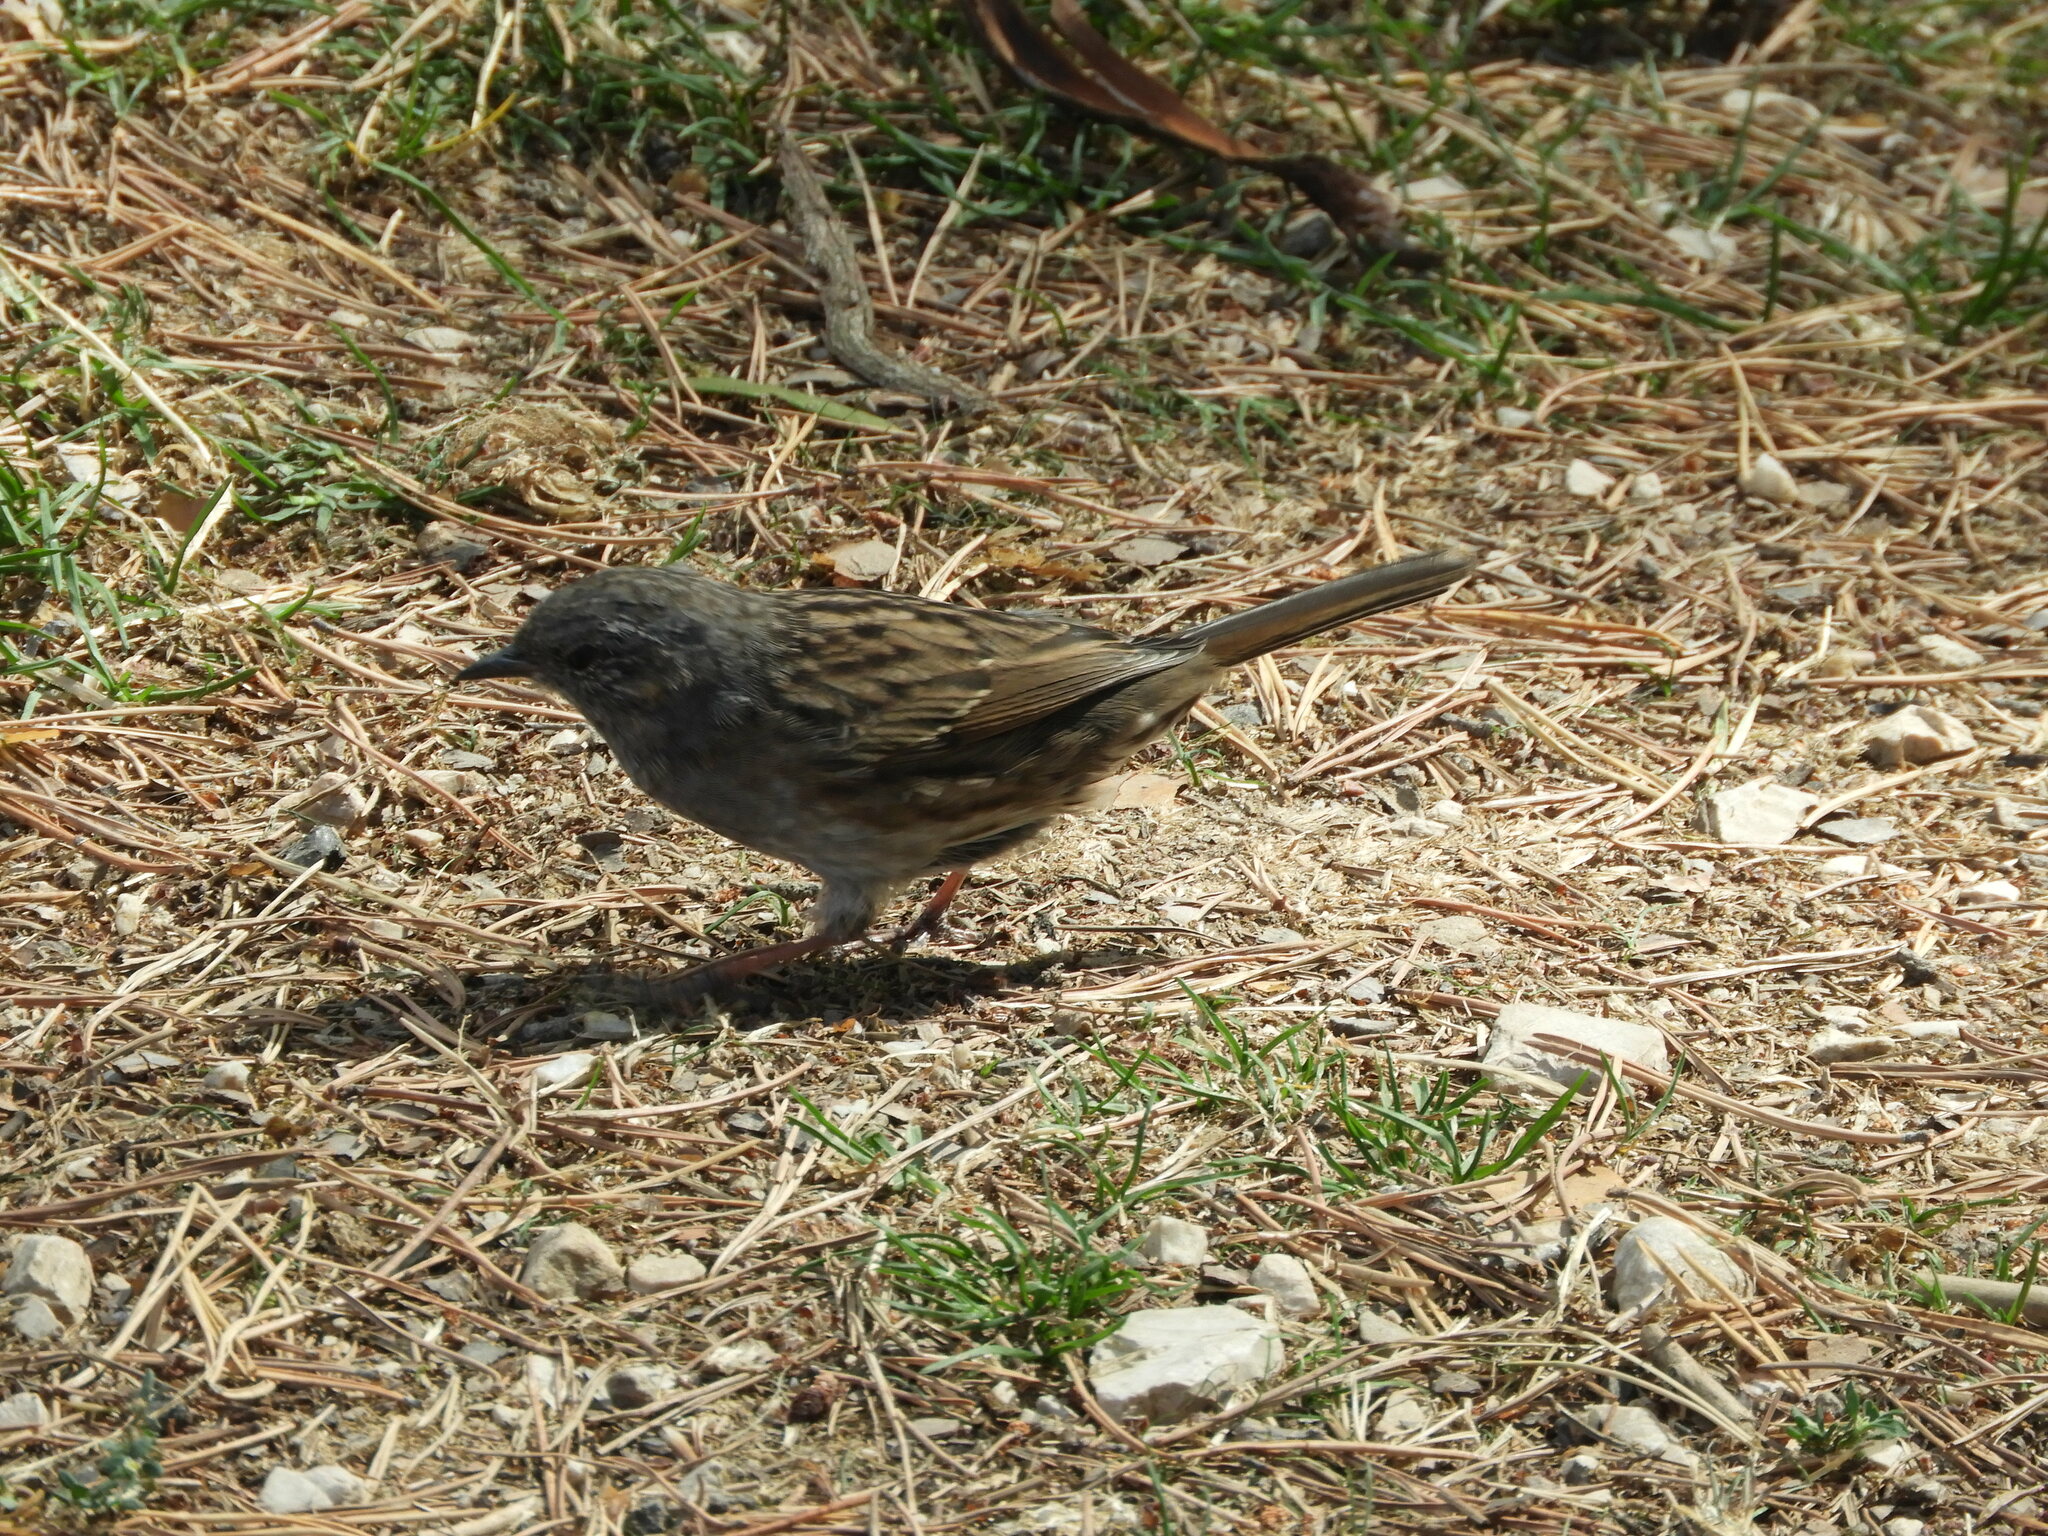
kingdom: Animalia
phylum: Chordata
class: Aves
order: Passeriformes
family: Prunellidae
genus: Prunella
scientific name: Prunella modularis
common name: Dunnock
